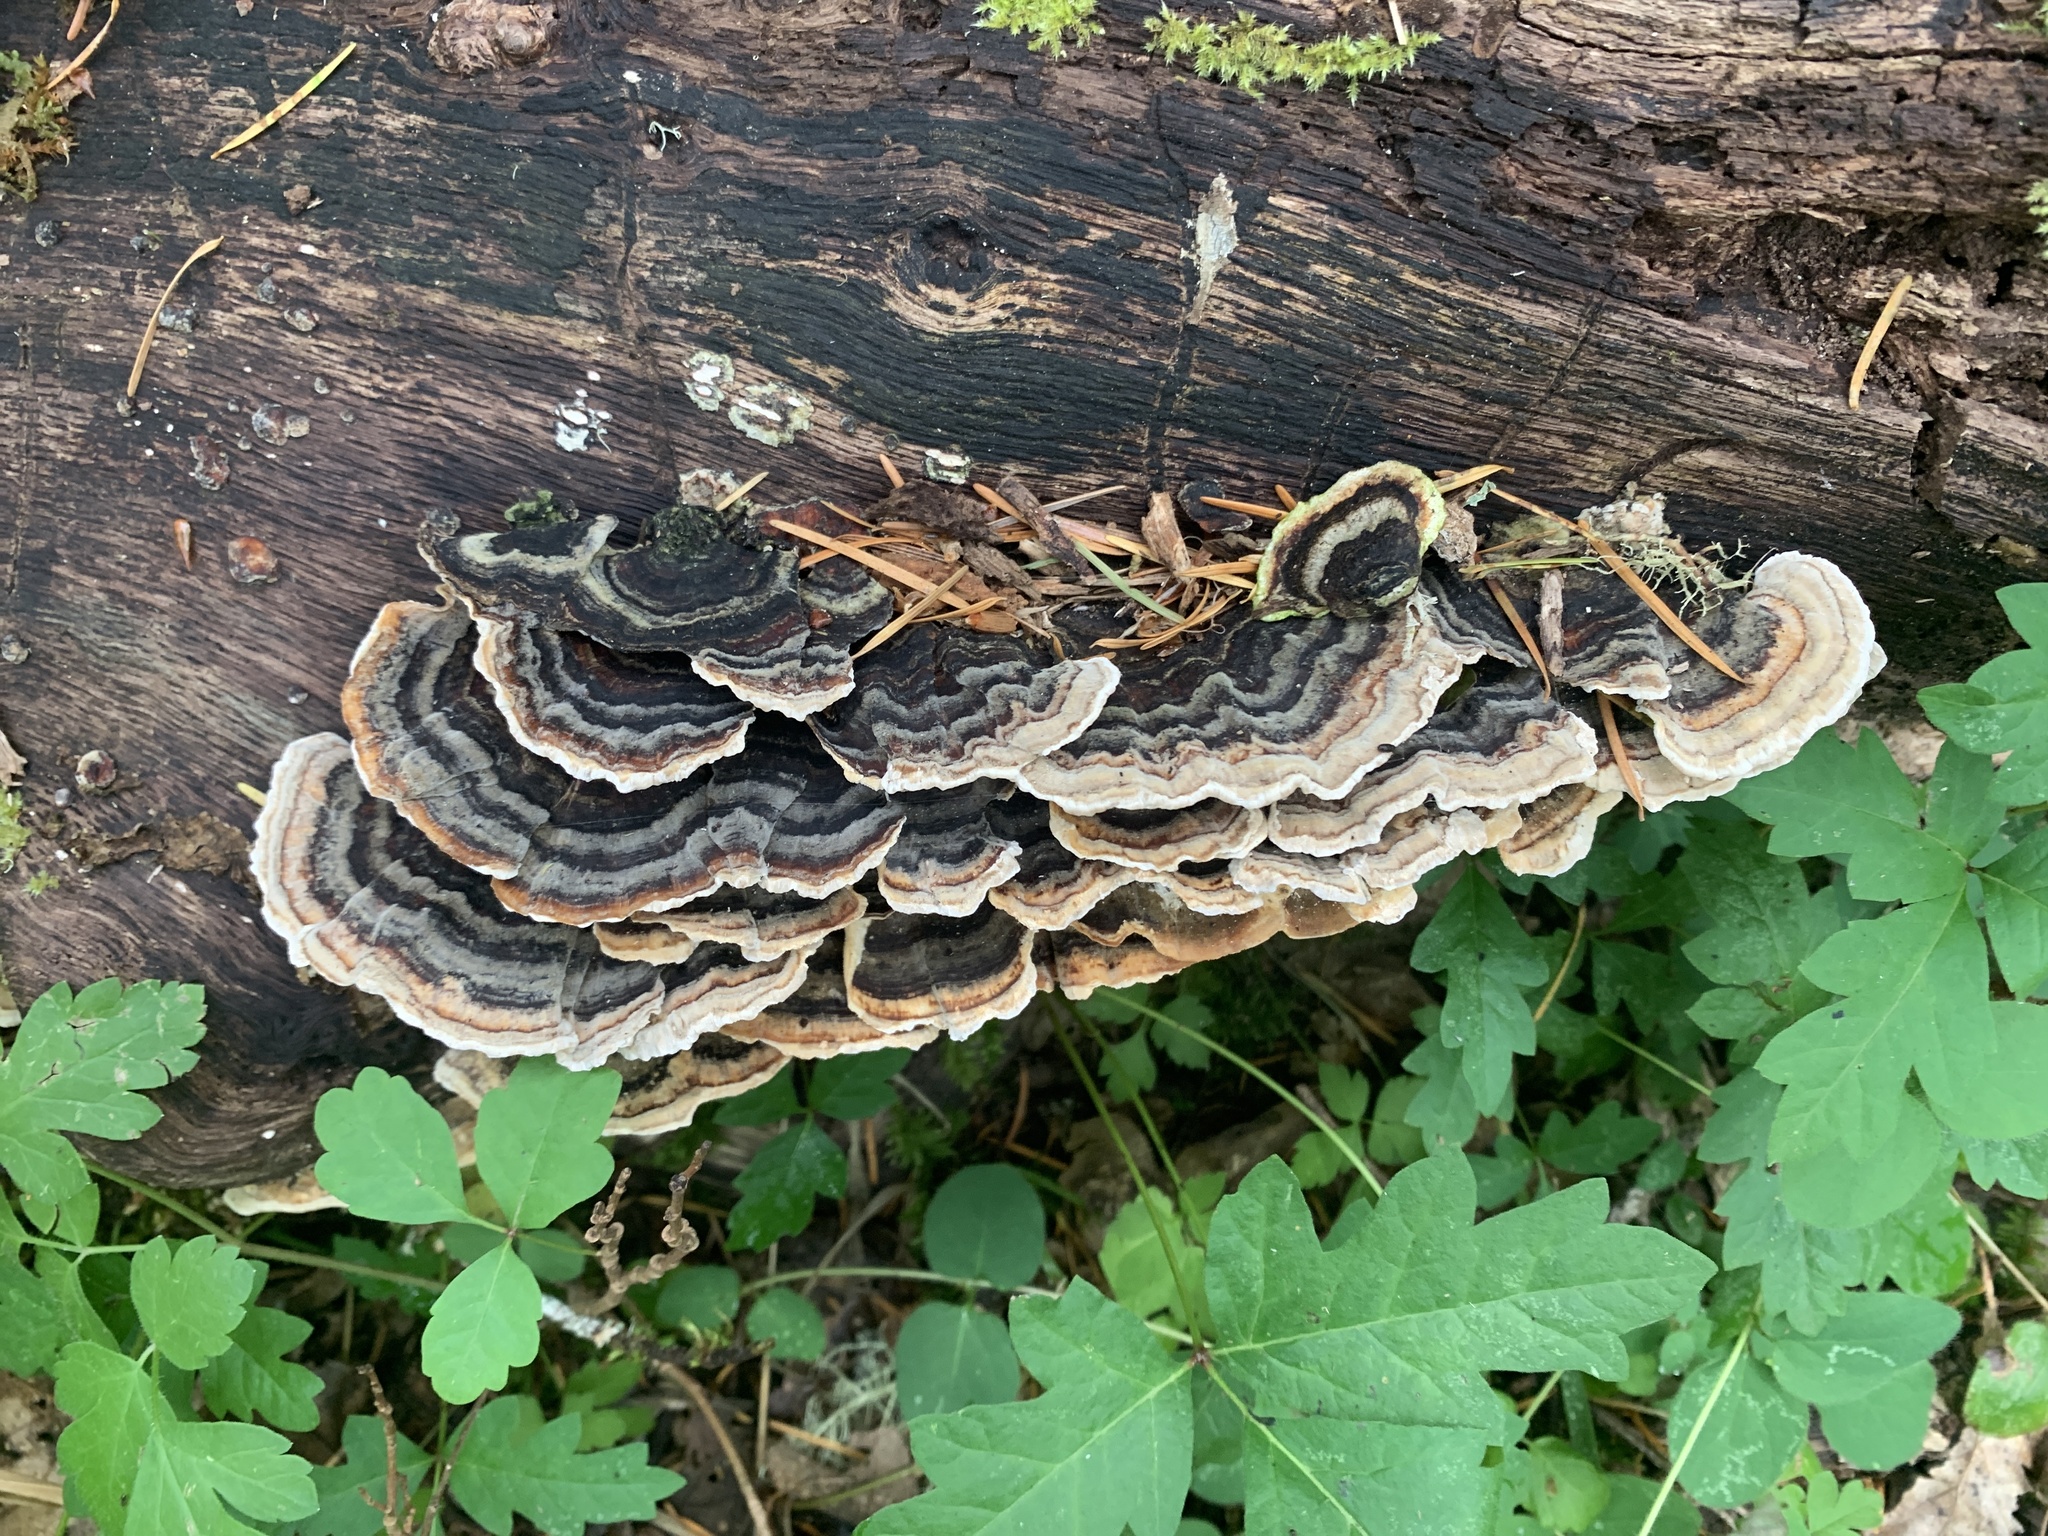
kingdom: Fungi
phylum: Basidiomycota
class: Agaricomycetes
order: Polyporales
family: Polyporaceae
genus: Trametes
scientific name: Trametes versicolor
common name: Turkeytail
